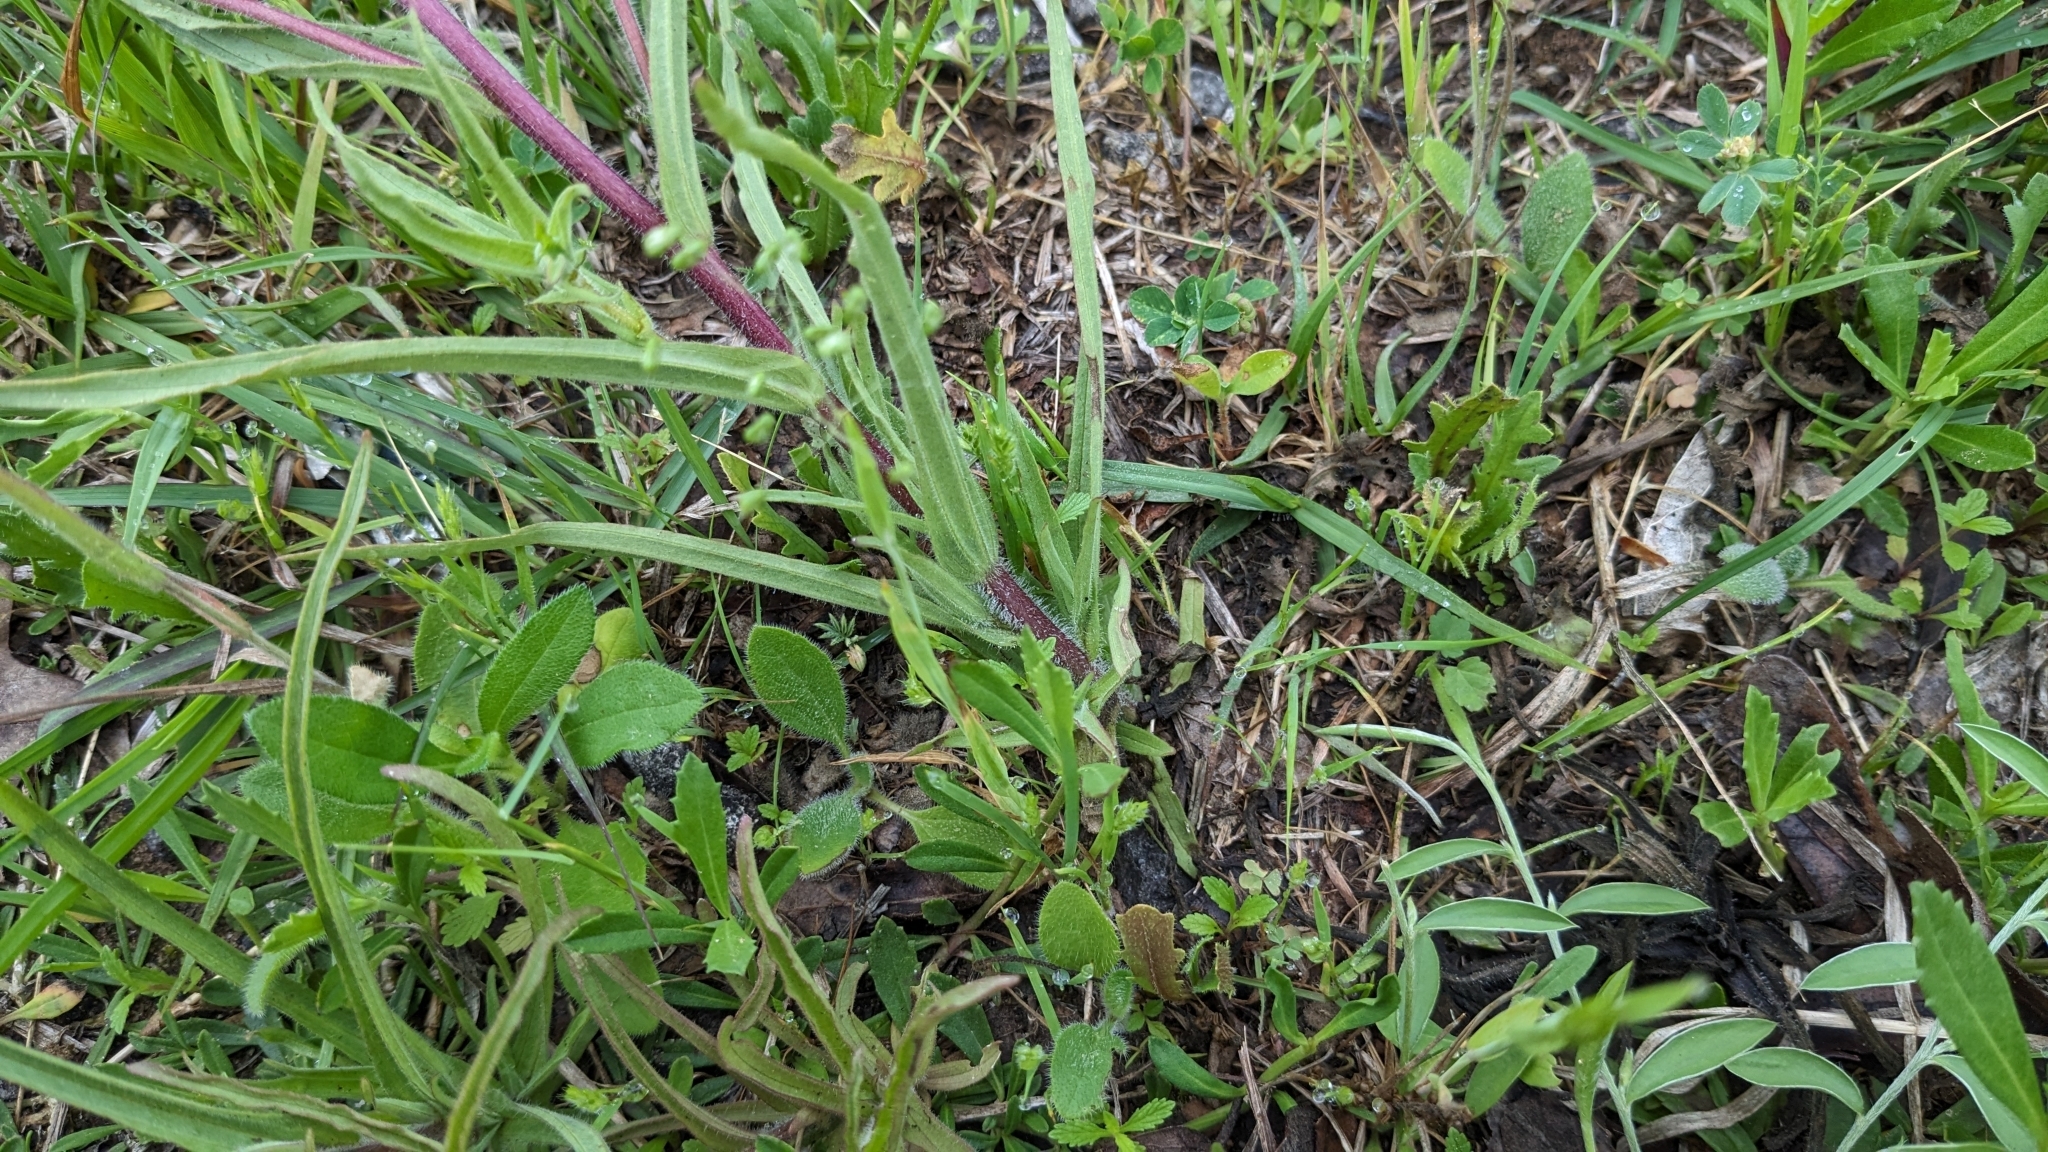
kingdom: Plantae
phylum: Tracheophyta
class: Magnoliopsida
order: Lamiales
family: Orobanchaceae
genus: Castilleja
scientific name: Castilleja indivisa
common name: Texas paintbrush
